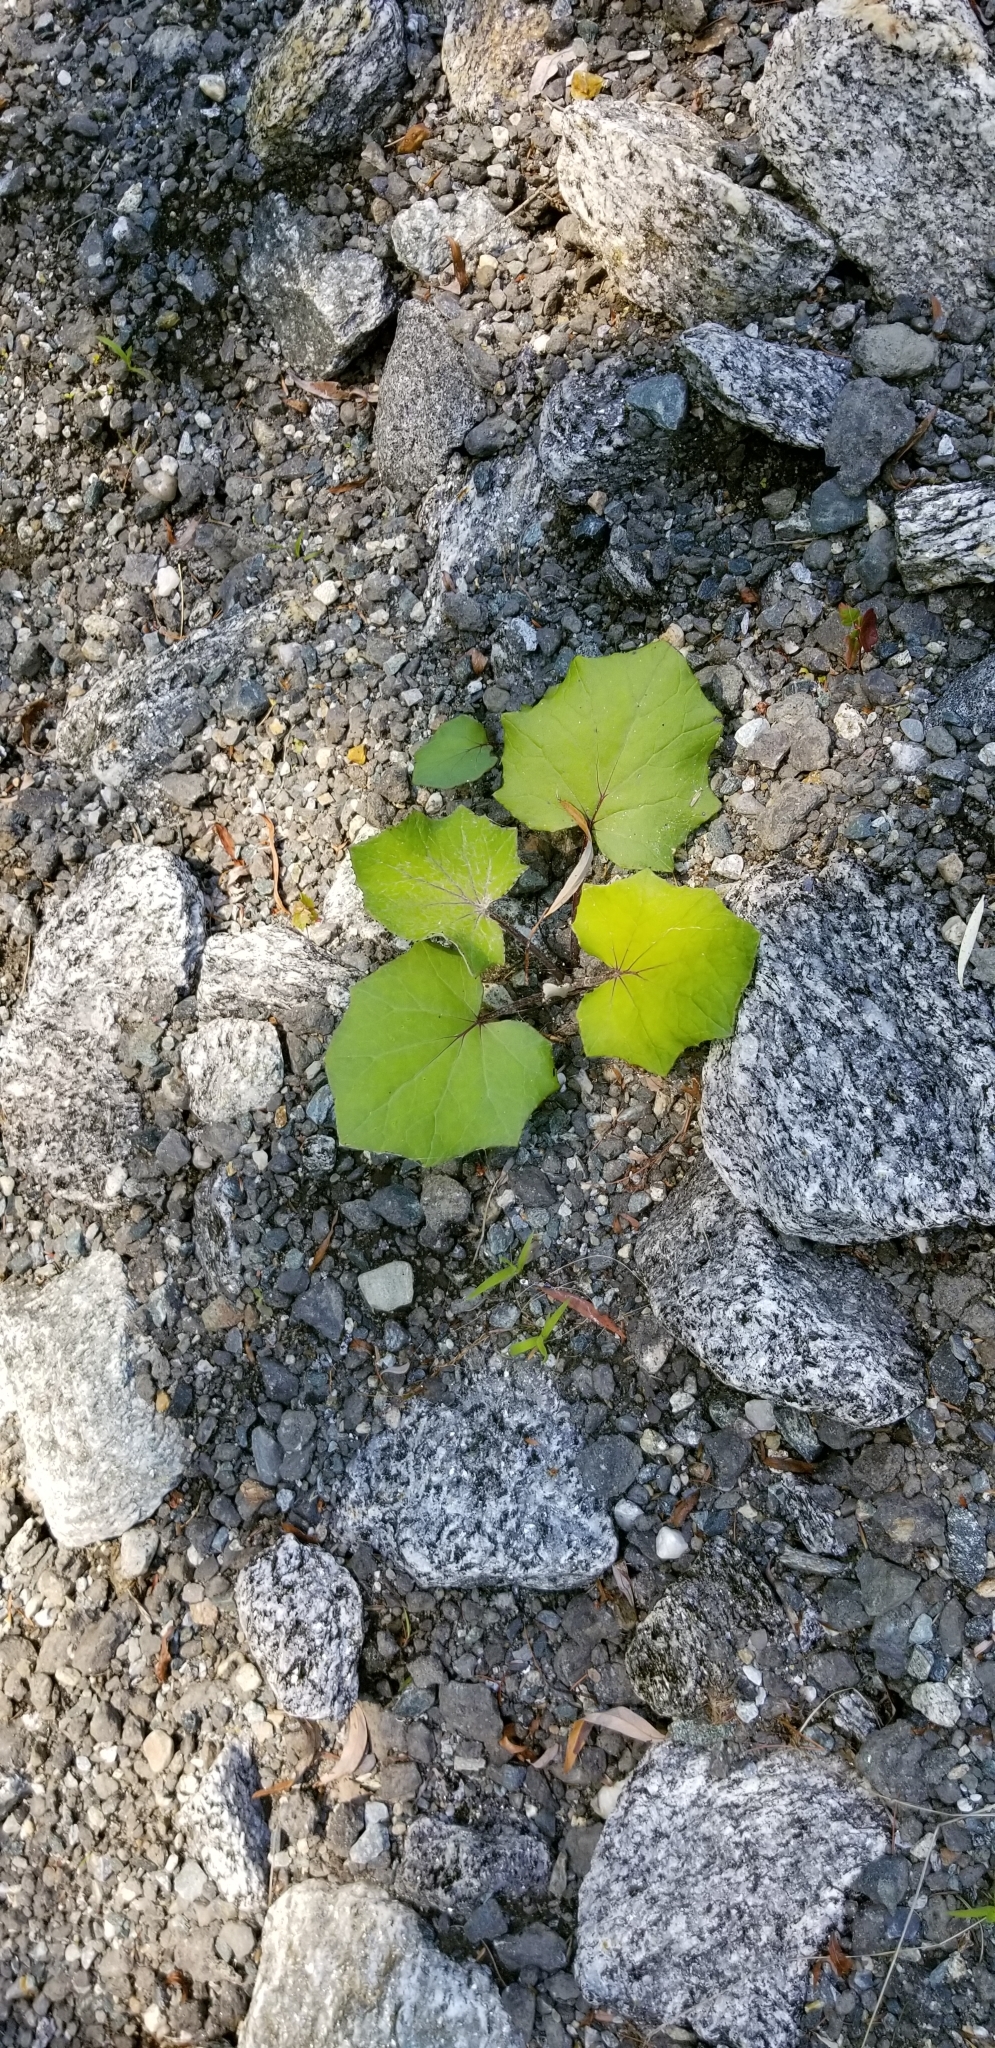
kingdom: Plantae
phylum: Tracheophyta
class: Magnoliopsida
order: Asterales
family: Asteraceae
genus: Tussilago
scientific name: Tussilago farfara
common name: Coltsfoot
